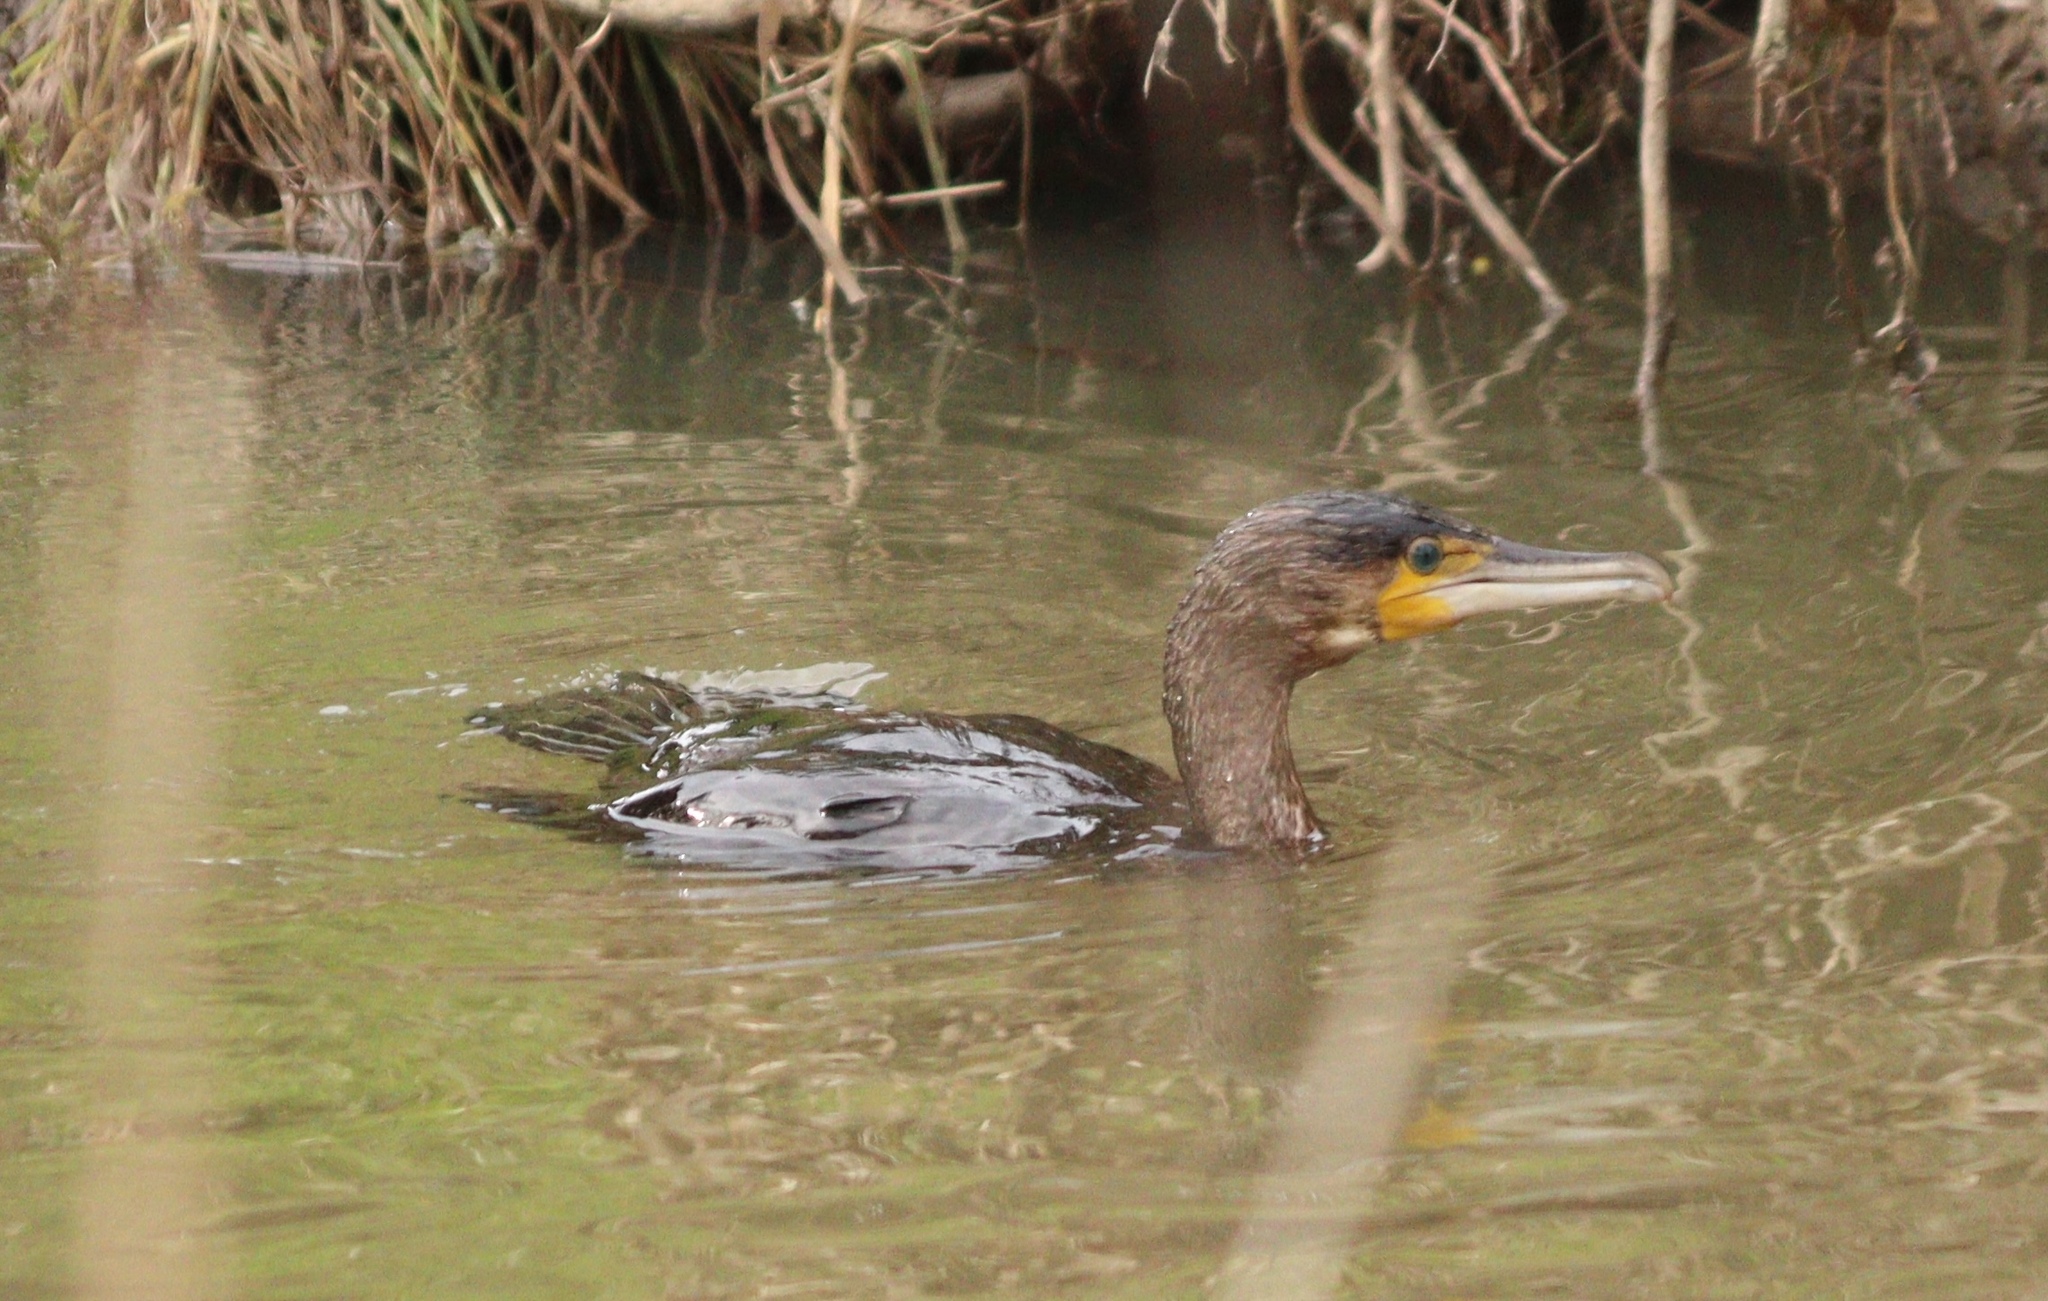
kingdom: Animalia
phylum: Chordata
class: Aves
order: Suliformes
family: Phalacrocoracidae
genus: Phalacrocorax
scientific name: Phalacrocorax carbo
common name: Great cormorant
